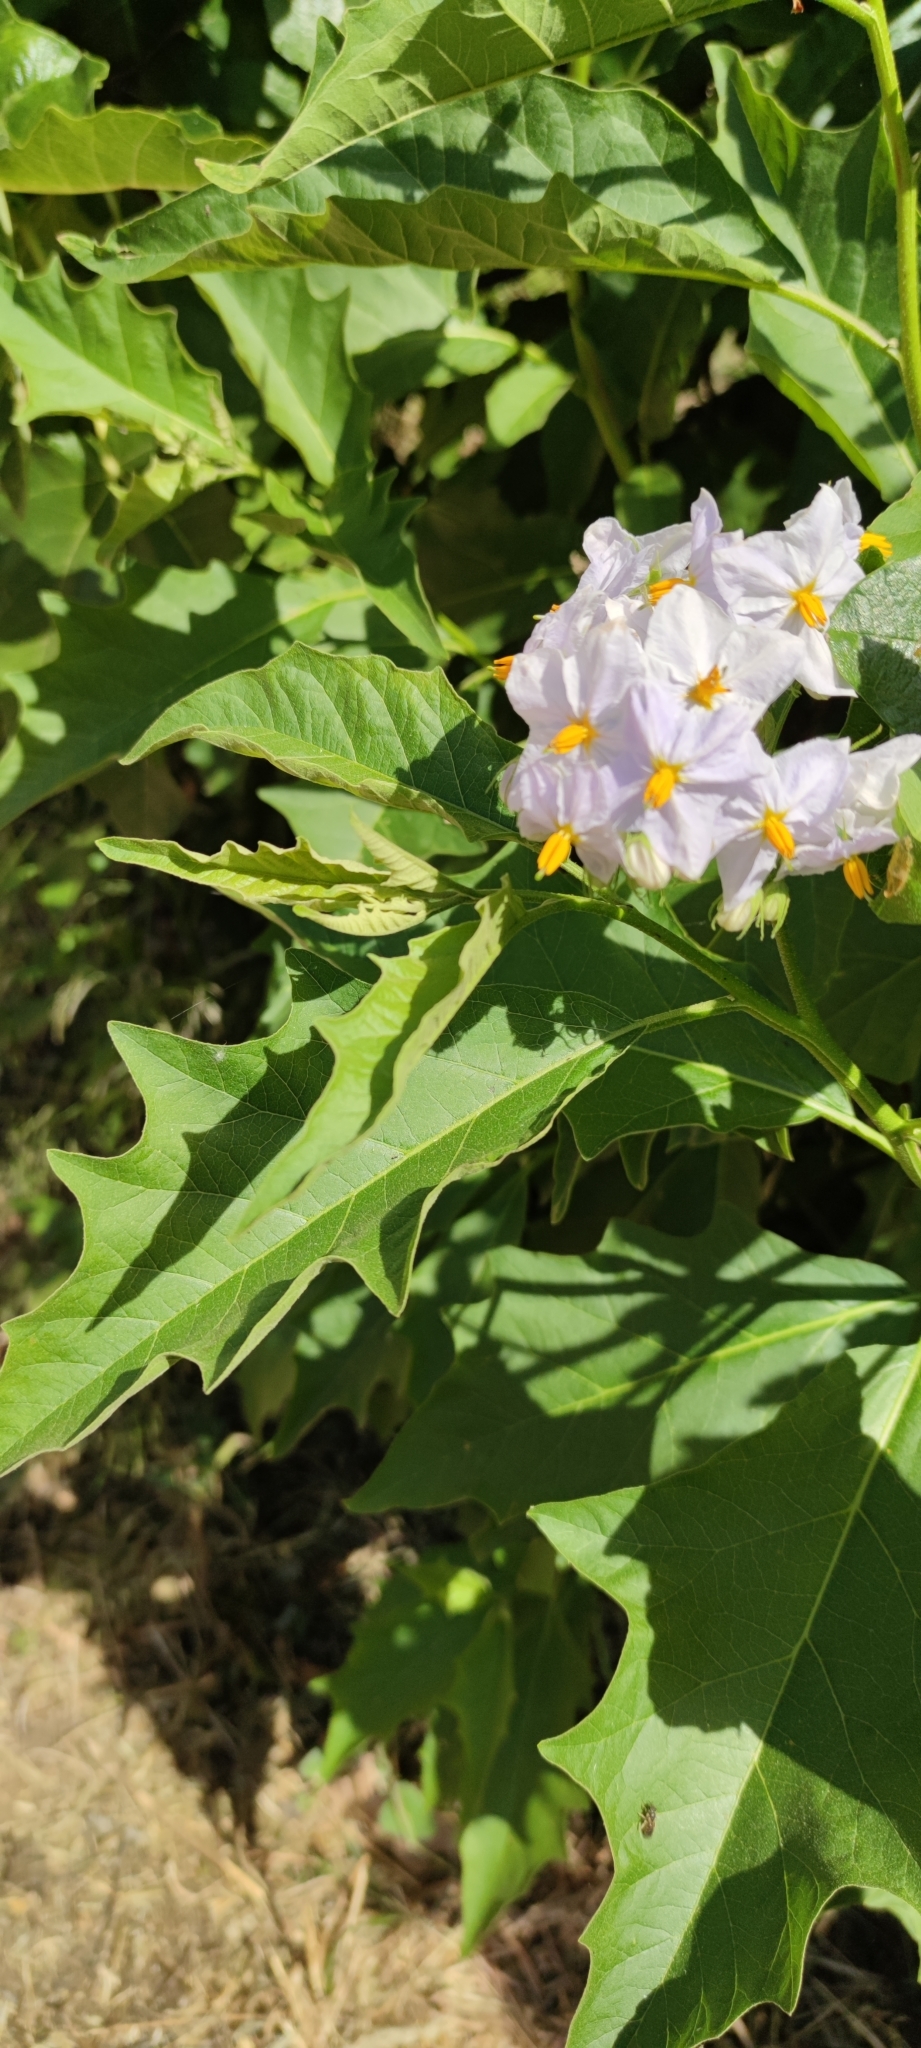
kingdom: Plantae
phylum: Tracheophyta
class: Magnoliopsida
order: Solanales
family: Solanaceae
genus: Solanum
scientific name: Solanum bonariense
